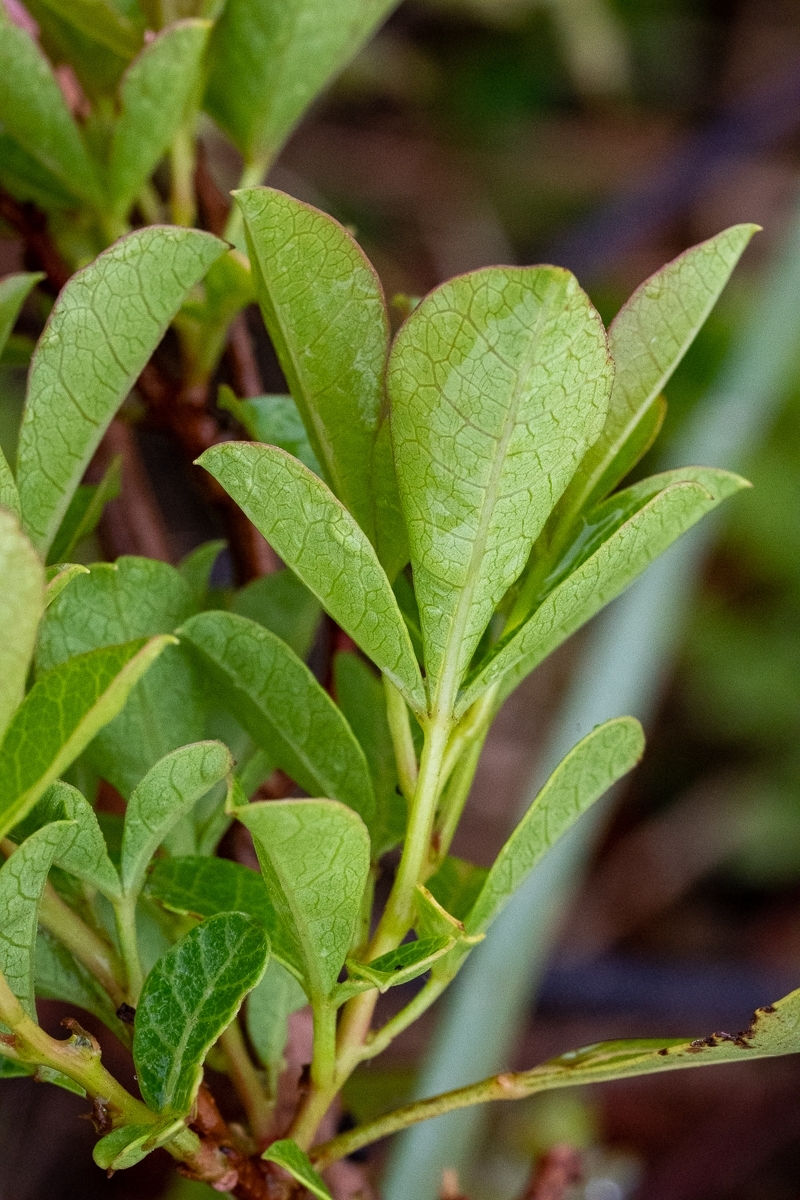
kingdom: Plantae
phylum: Tracheophyta
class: Magnoliopsida
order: Sapindales
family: Anacardiaceae
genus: Searsia
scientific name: Searsia laevigata
